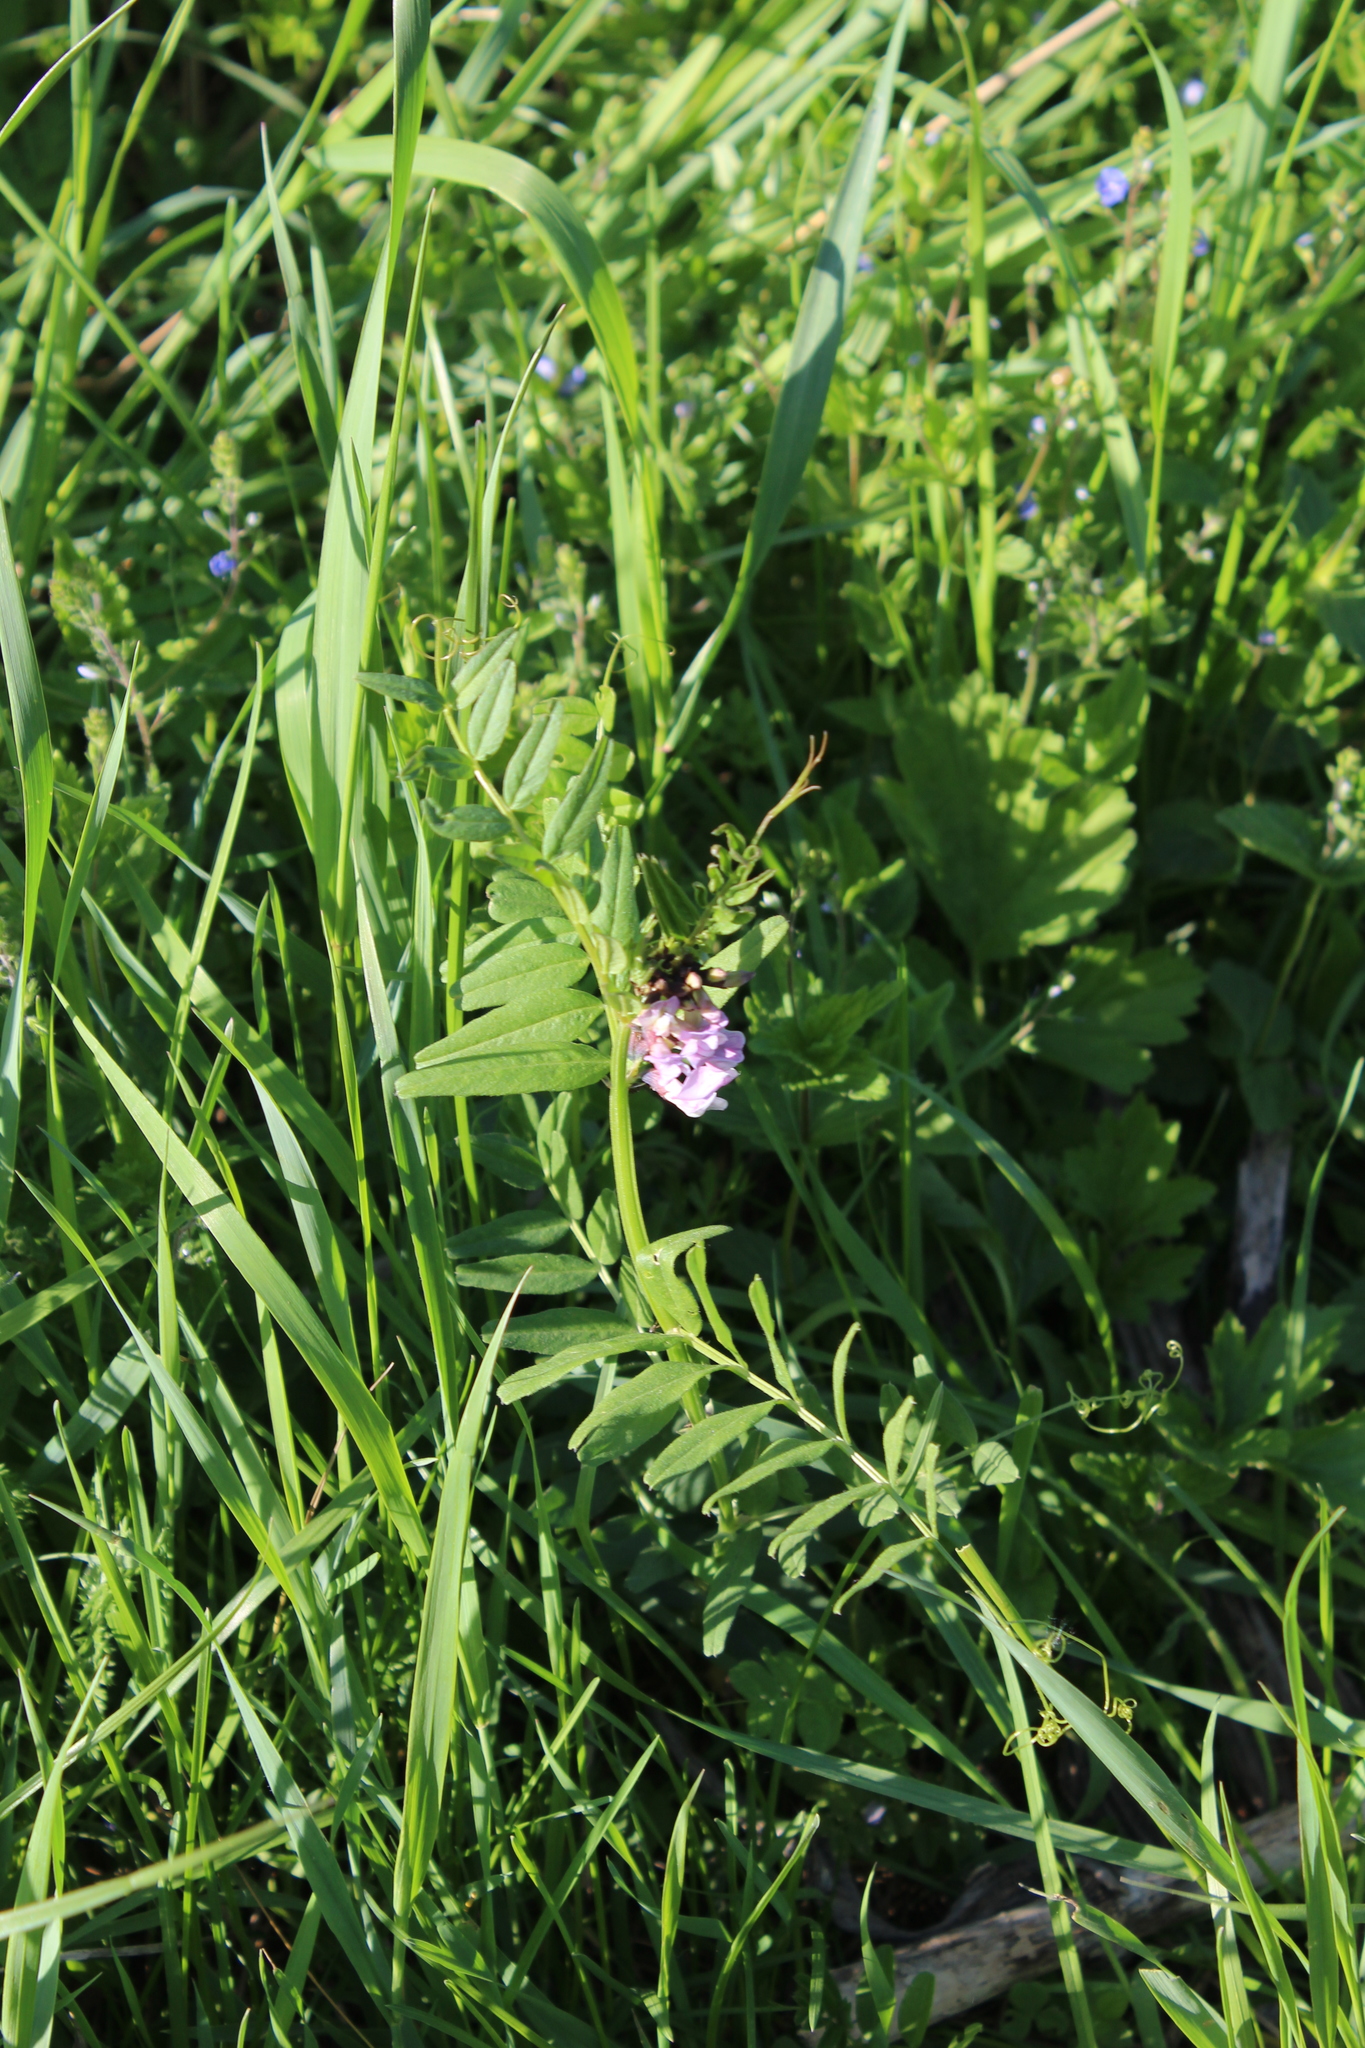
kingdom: Plantae
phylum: Tracheophyta
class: Magnoliopsida
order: Fabales
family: Fabaceae
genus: Vicia
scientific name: Vicia sepium
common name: Bush vetch
